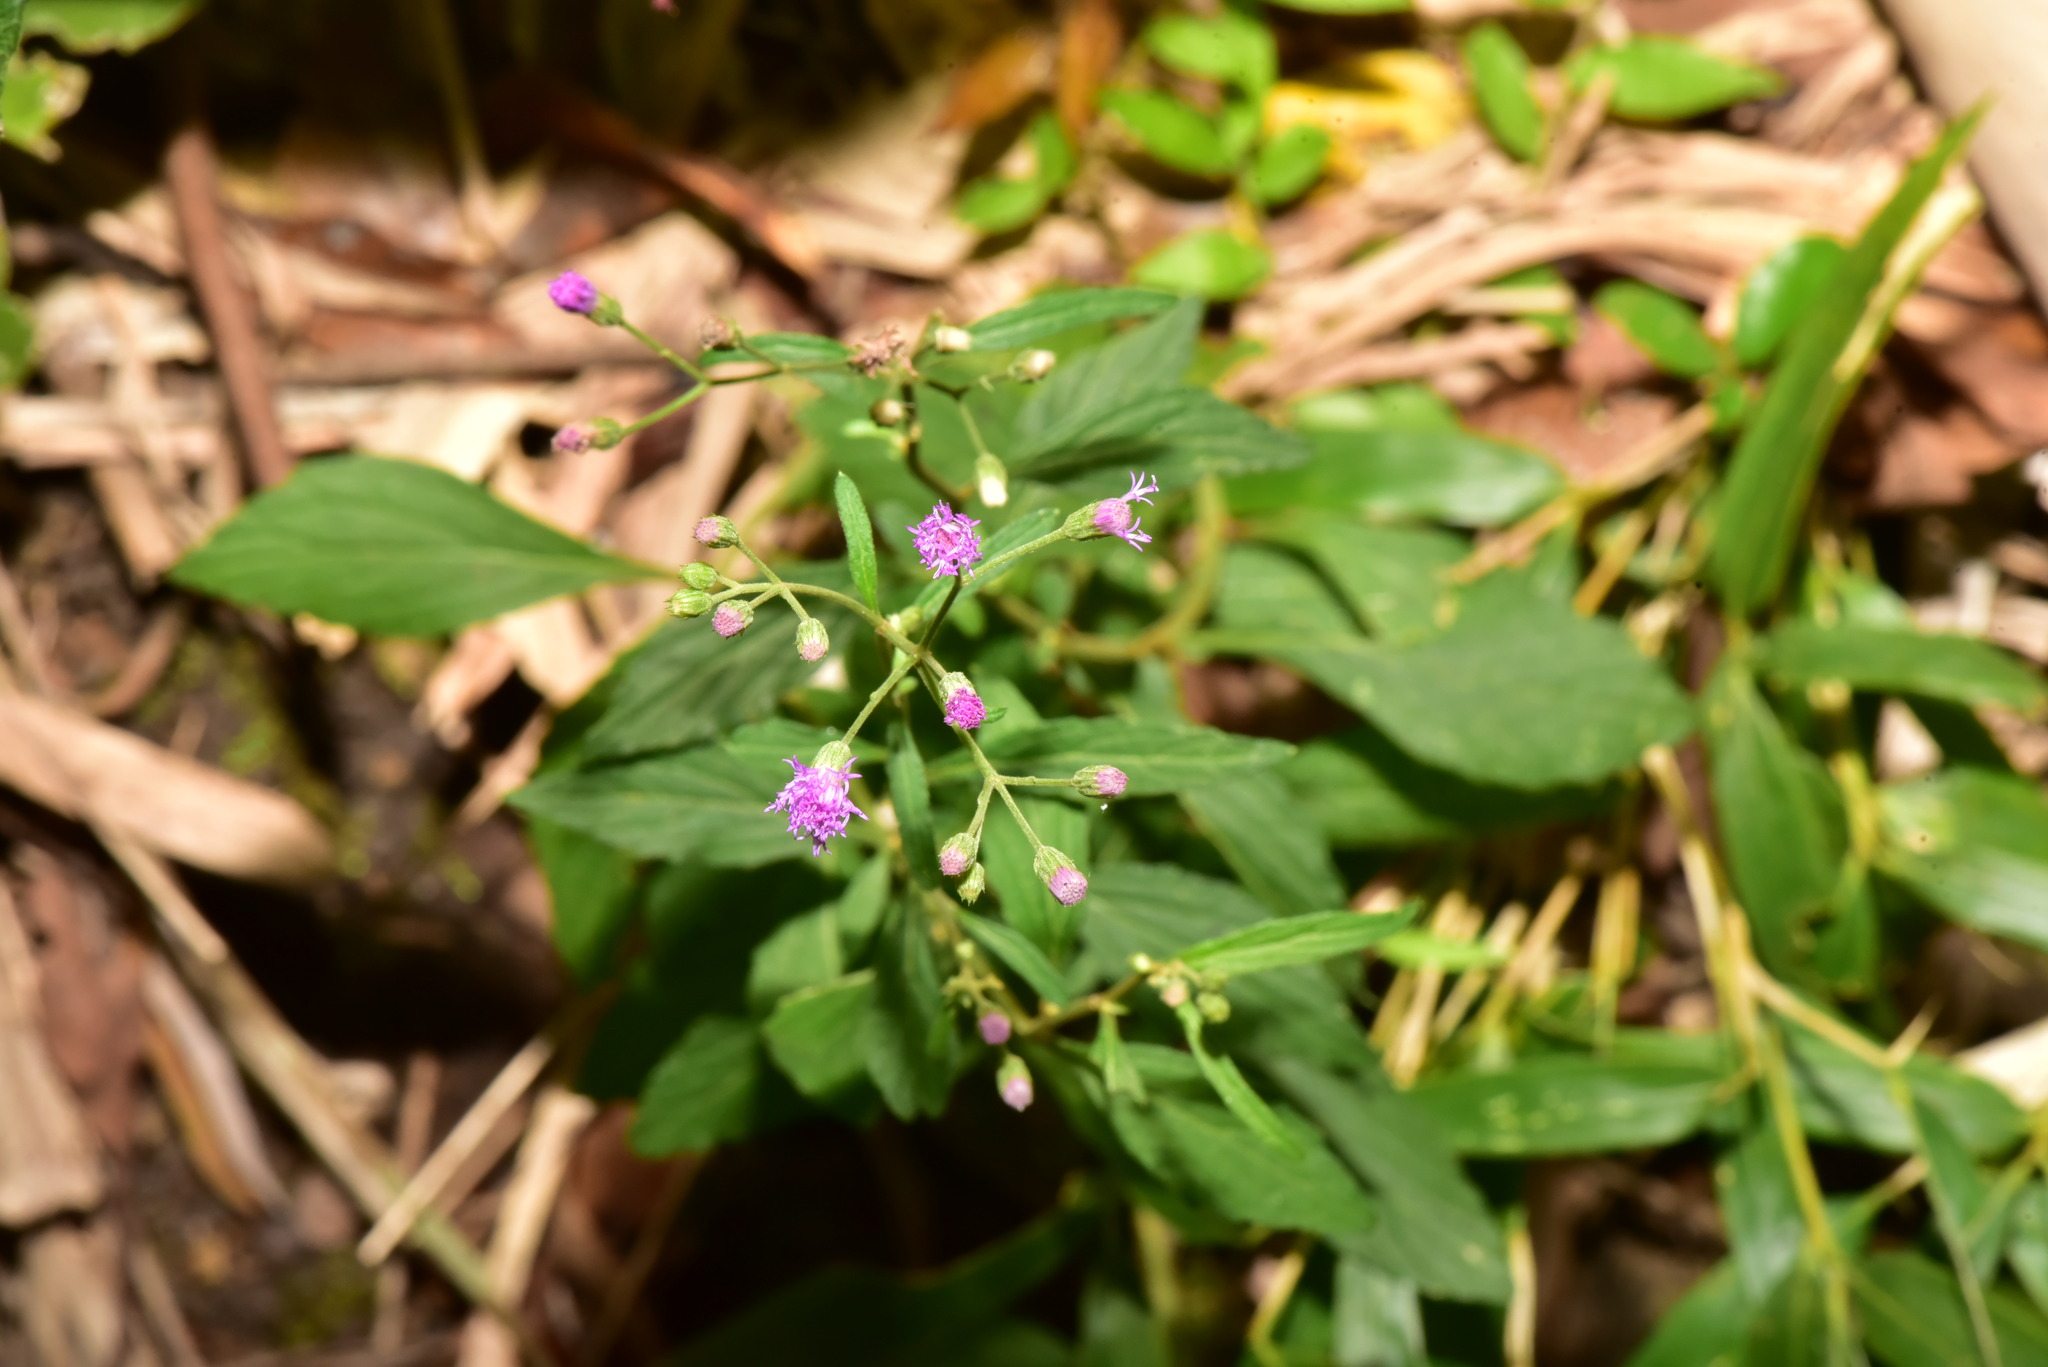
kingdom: Plantae
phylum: Tracheophyta
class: Magnoliopsida
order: Asterales
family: Asteraceae
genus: Cyanthillium
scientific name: Cyanthillium cinereum
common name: Little ironweed
